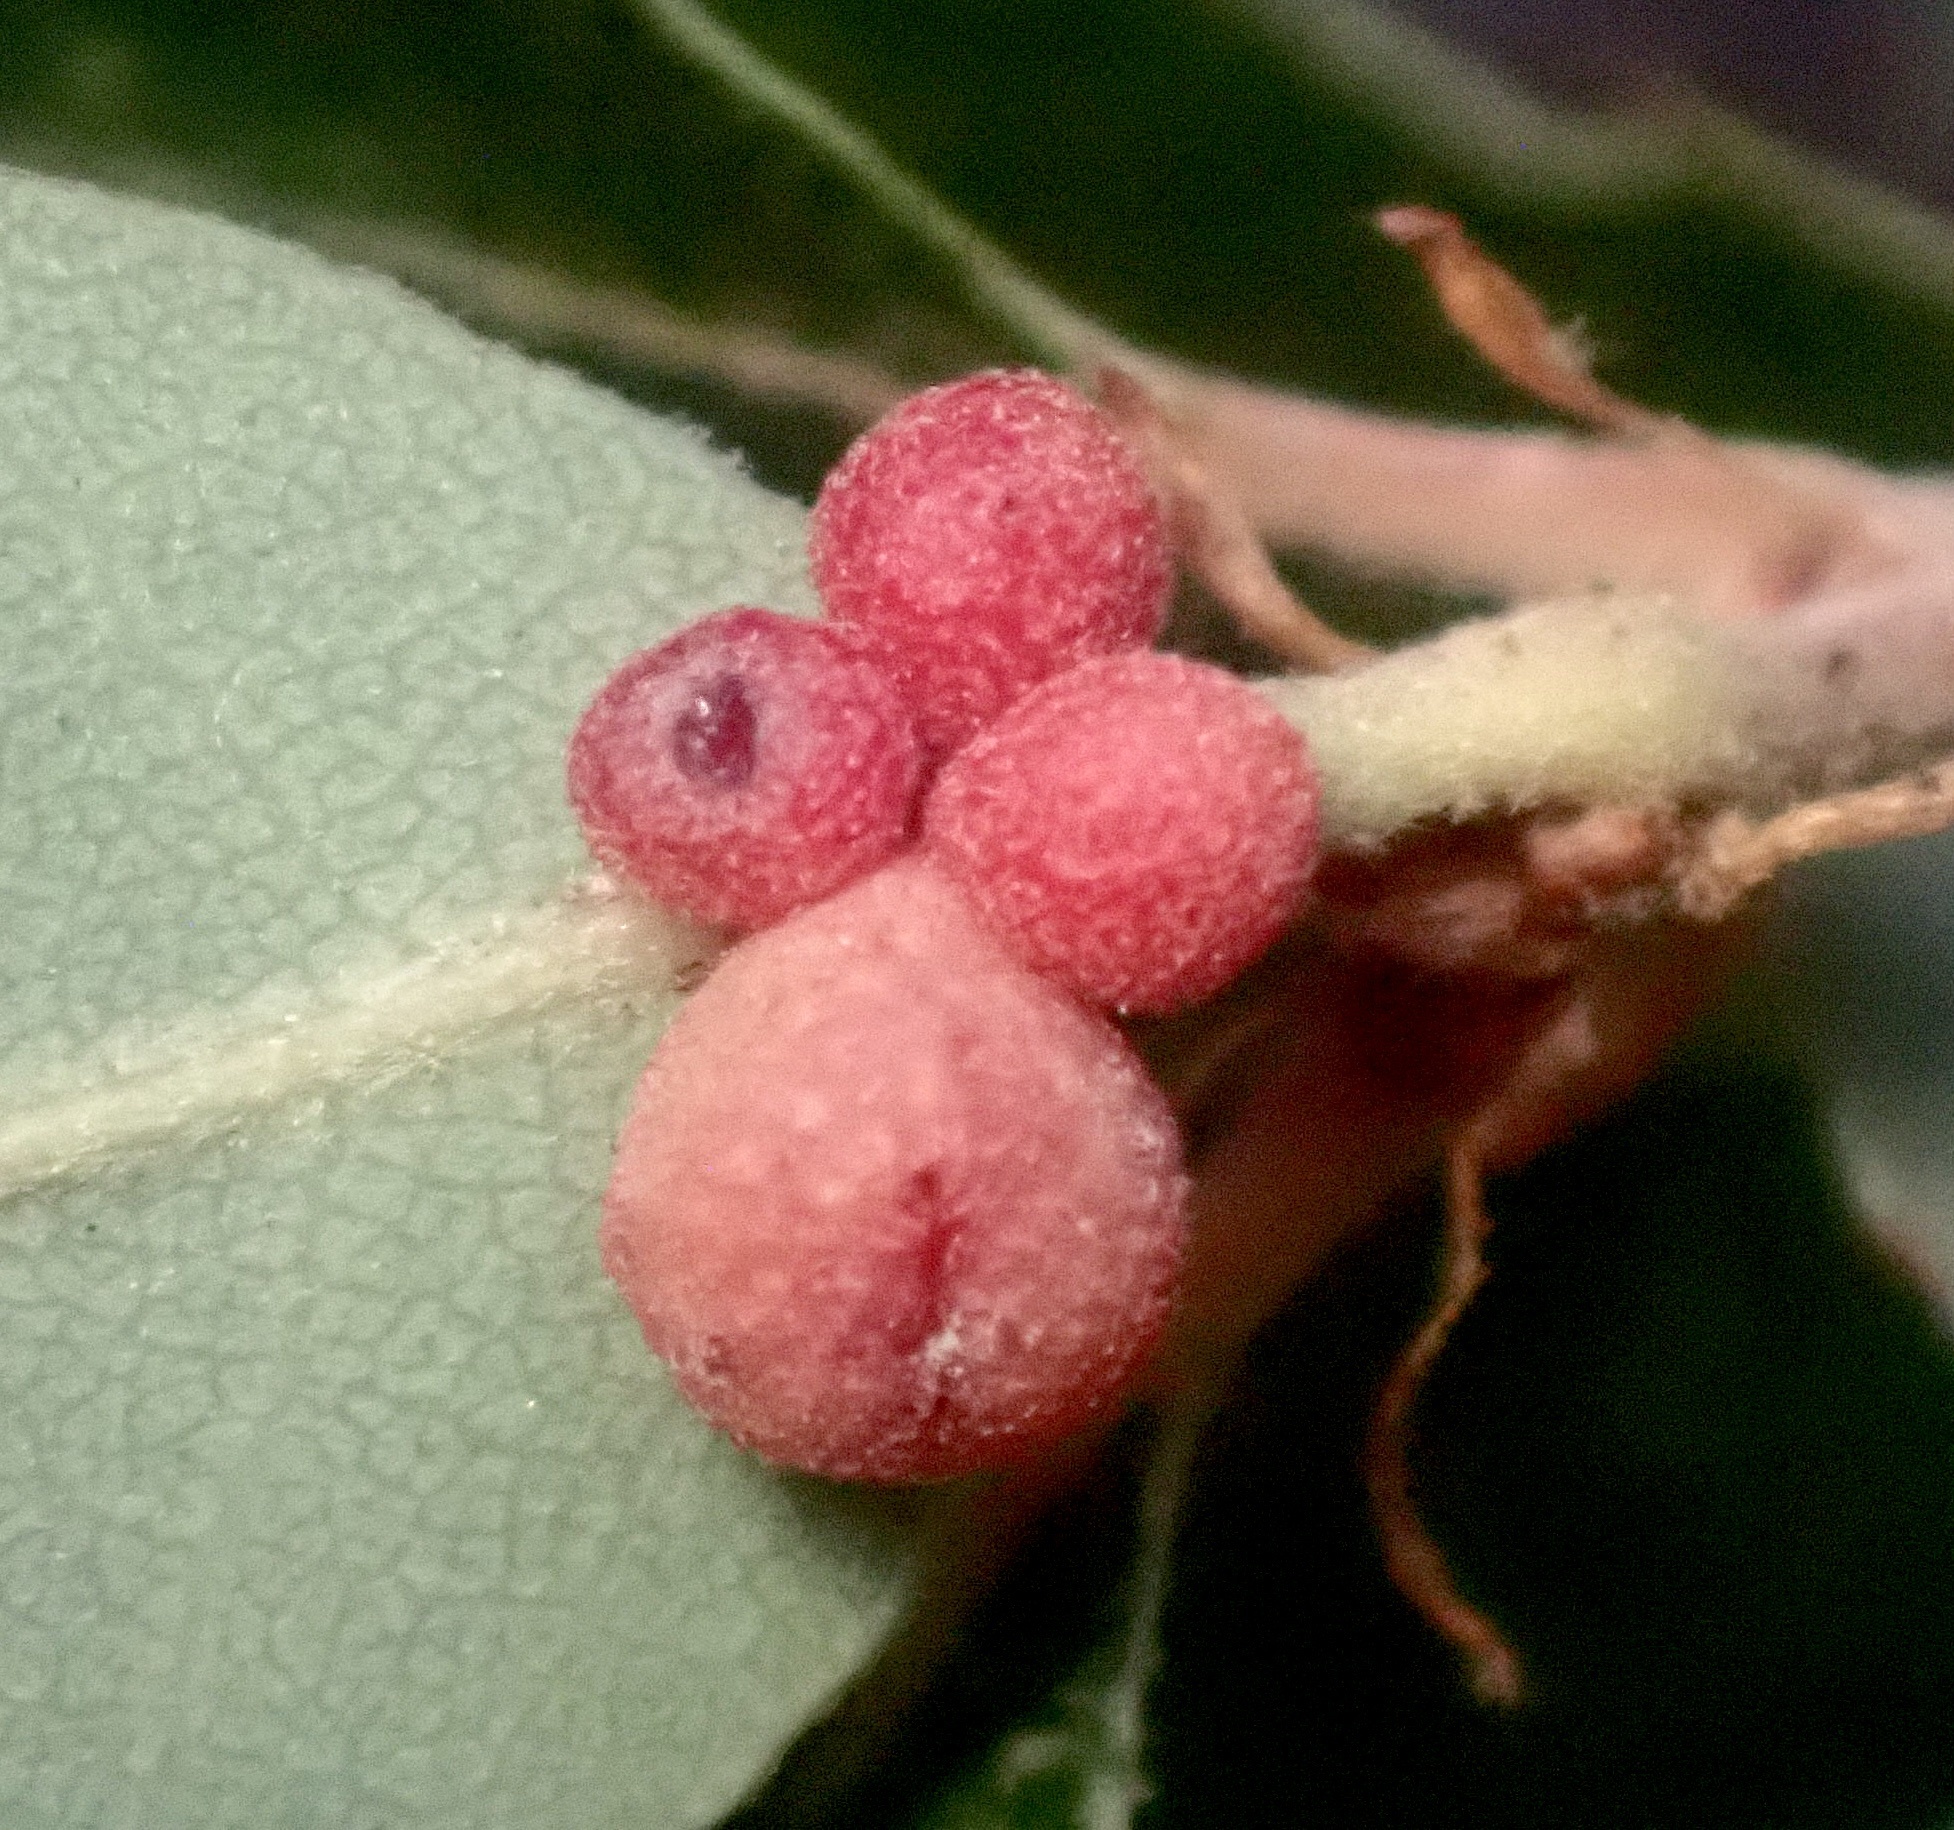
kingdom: Animalia
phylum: Arthropoda
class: Insecta
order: Hymenoptera
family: Cynipidae
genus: Andricus
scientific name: Andricus
